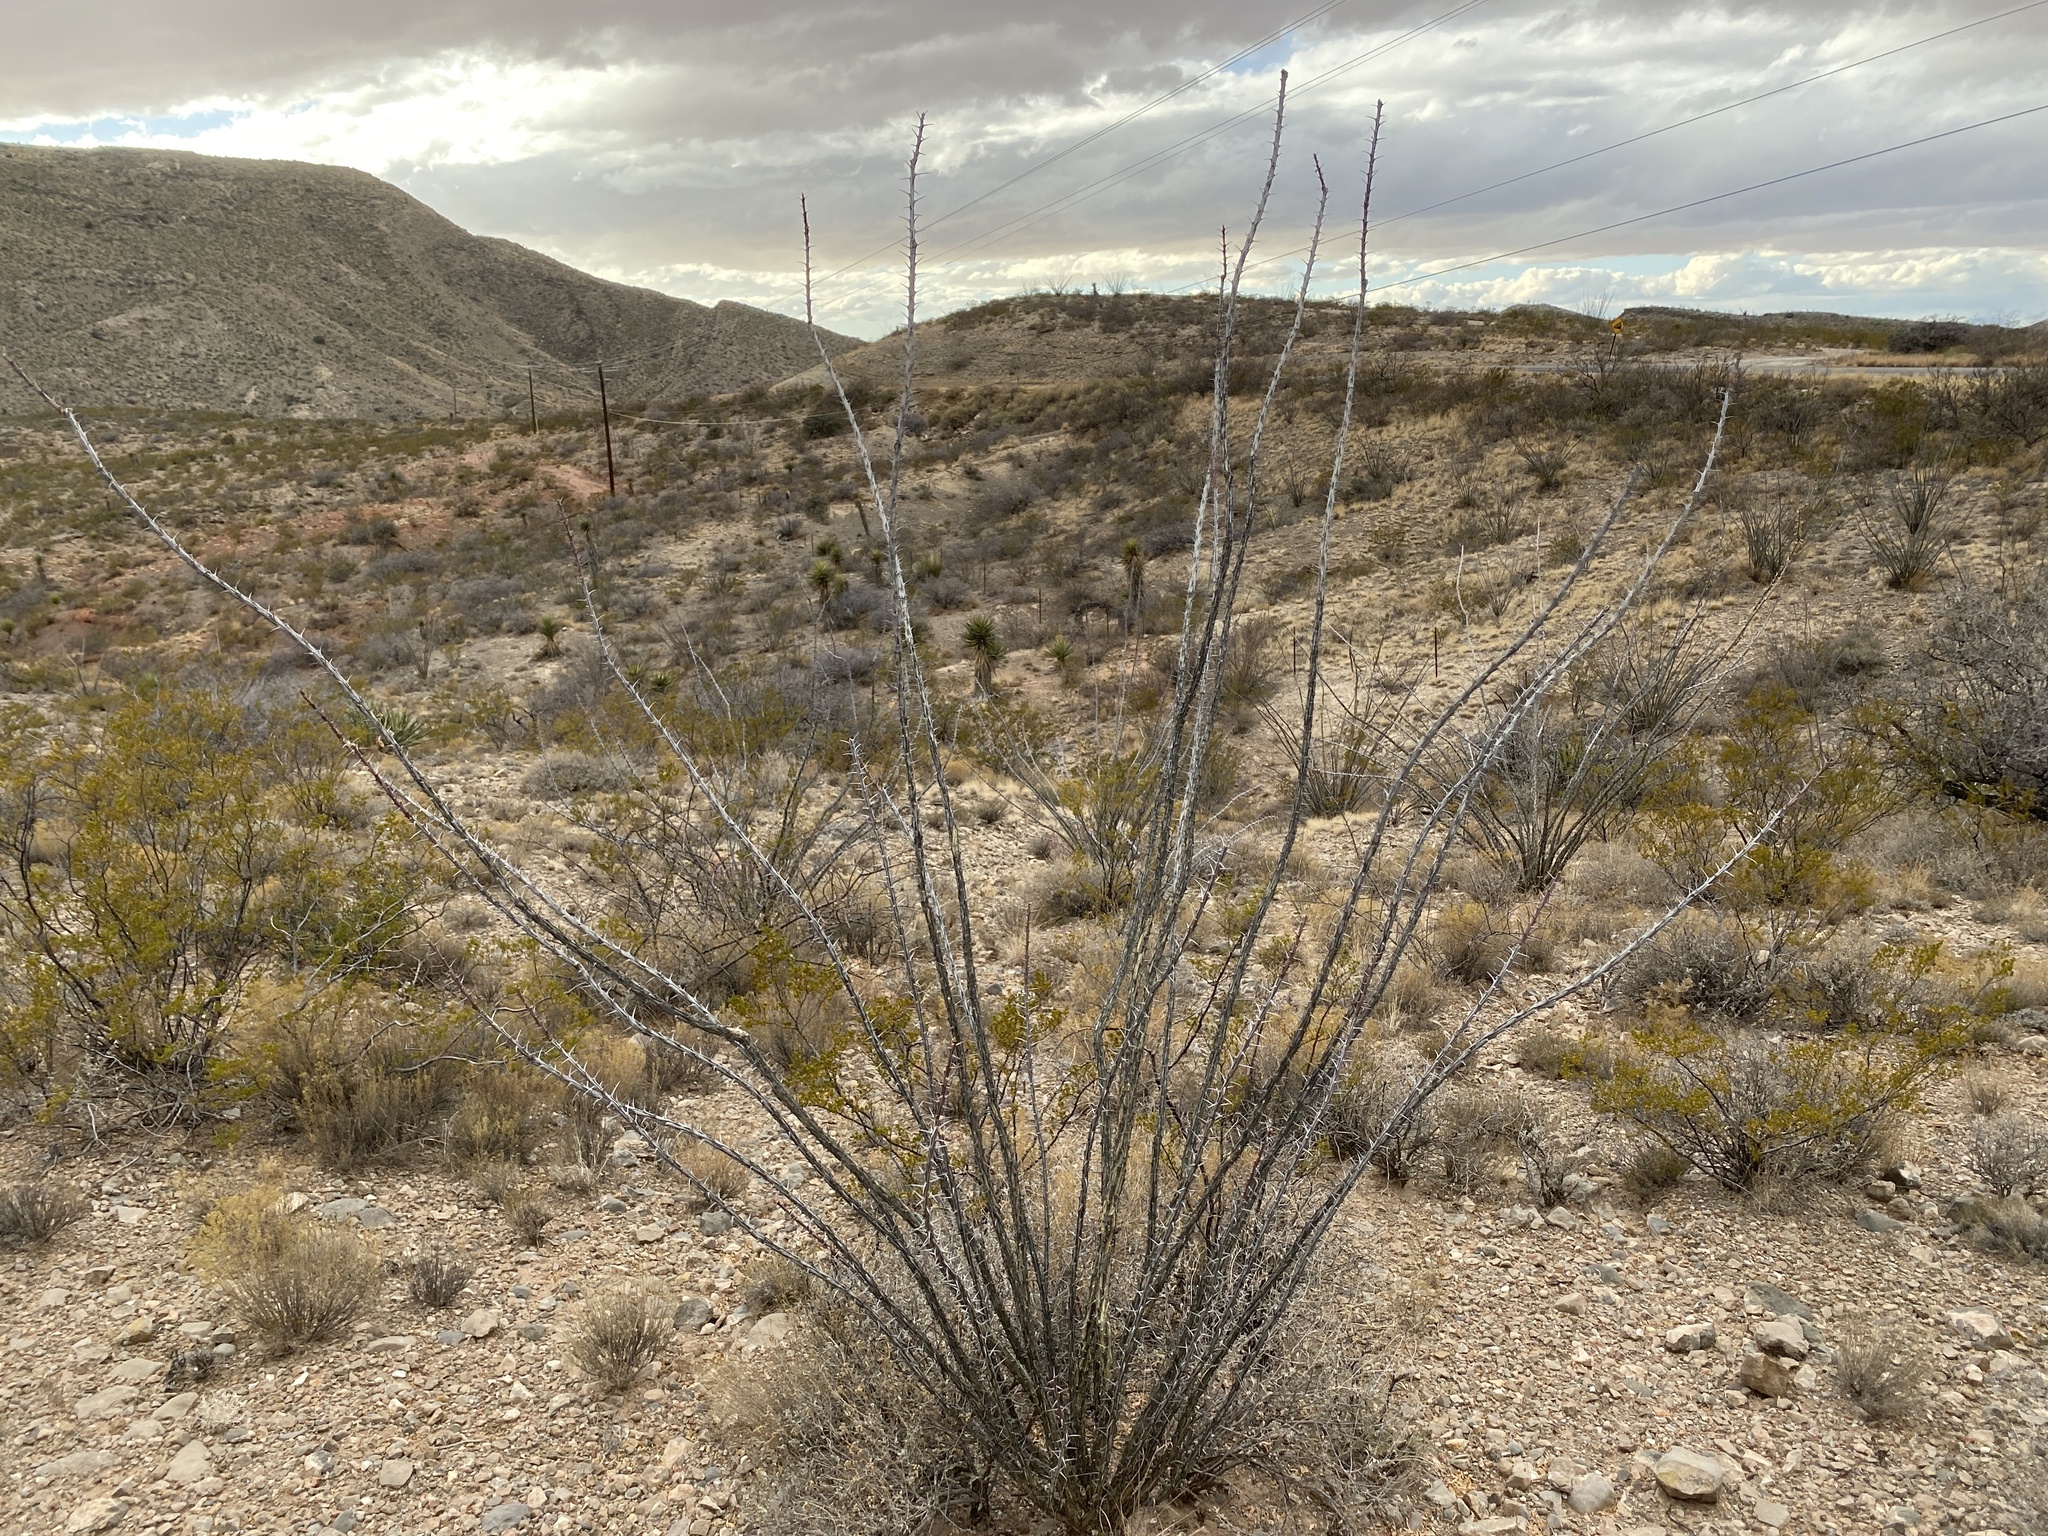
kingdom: Plantae
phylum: Tracheophyta
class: Magnoliopsida
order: Ericales
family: Fouquieriaceae
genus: Fouquieria
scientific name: Fouquieria splendens
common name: Vine-cactus
